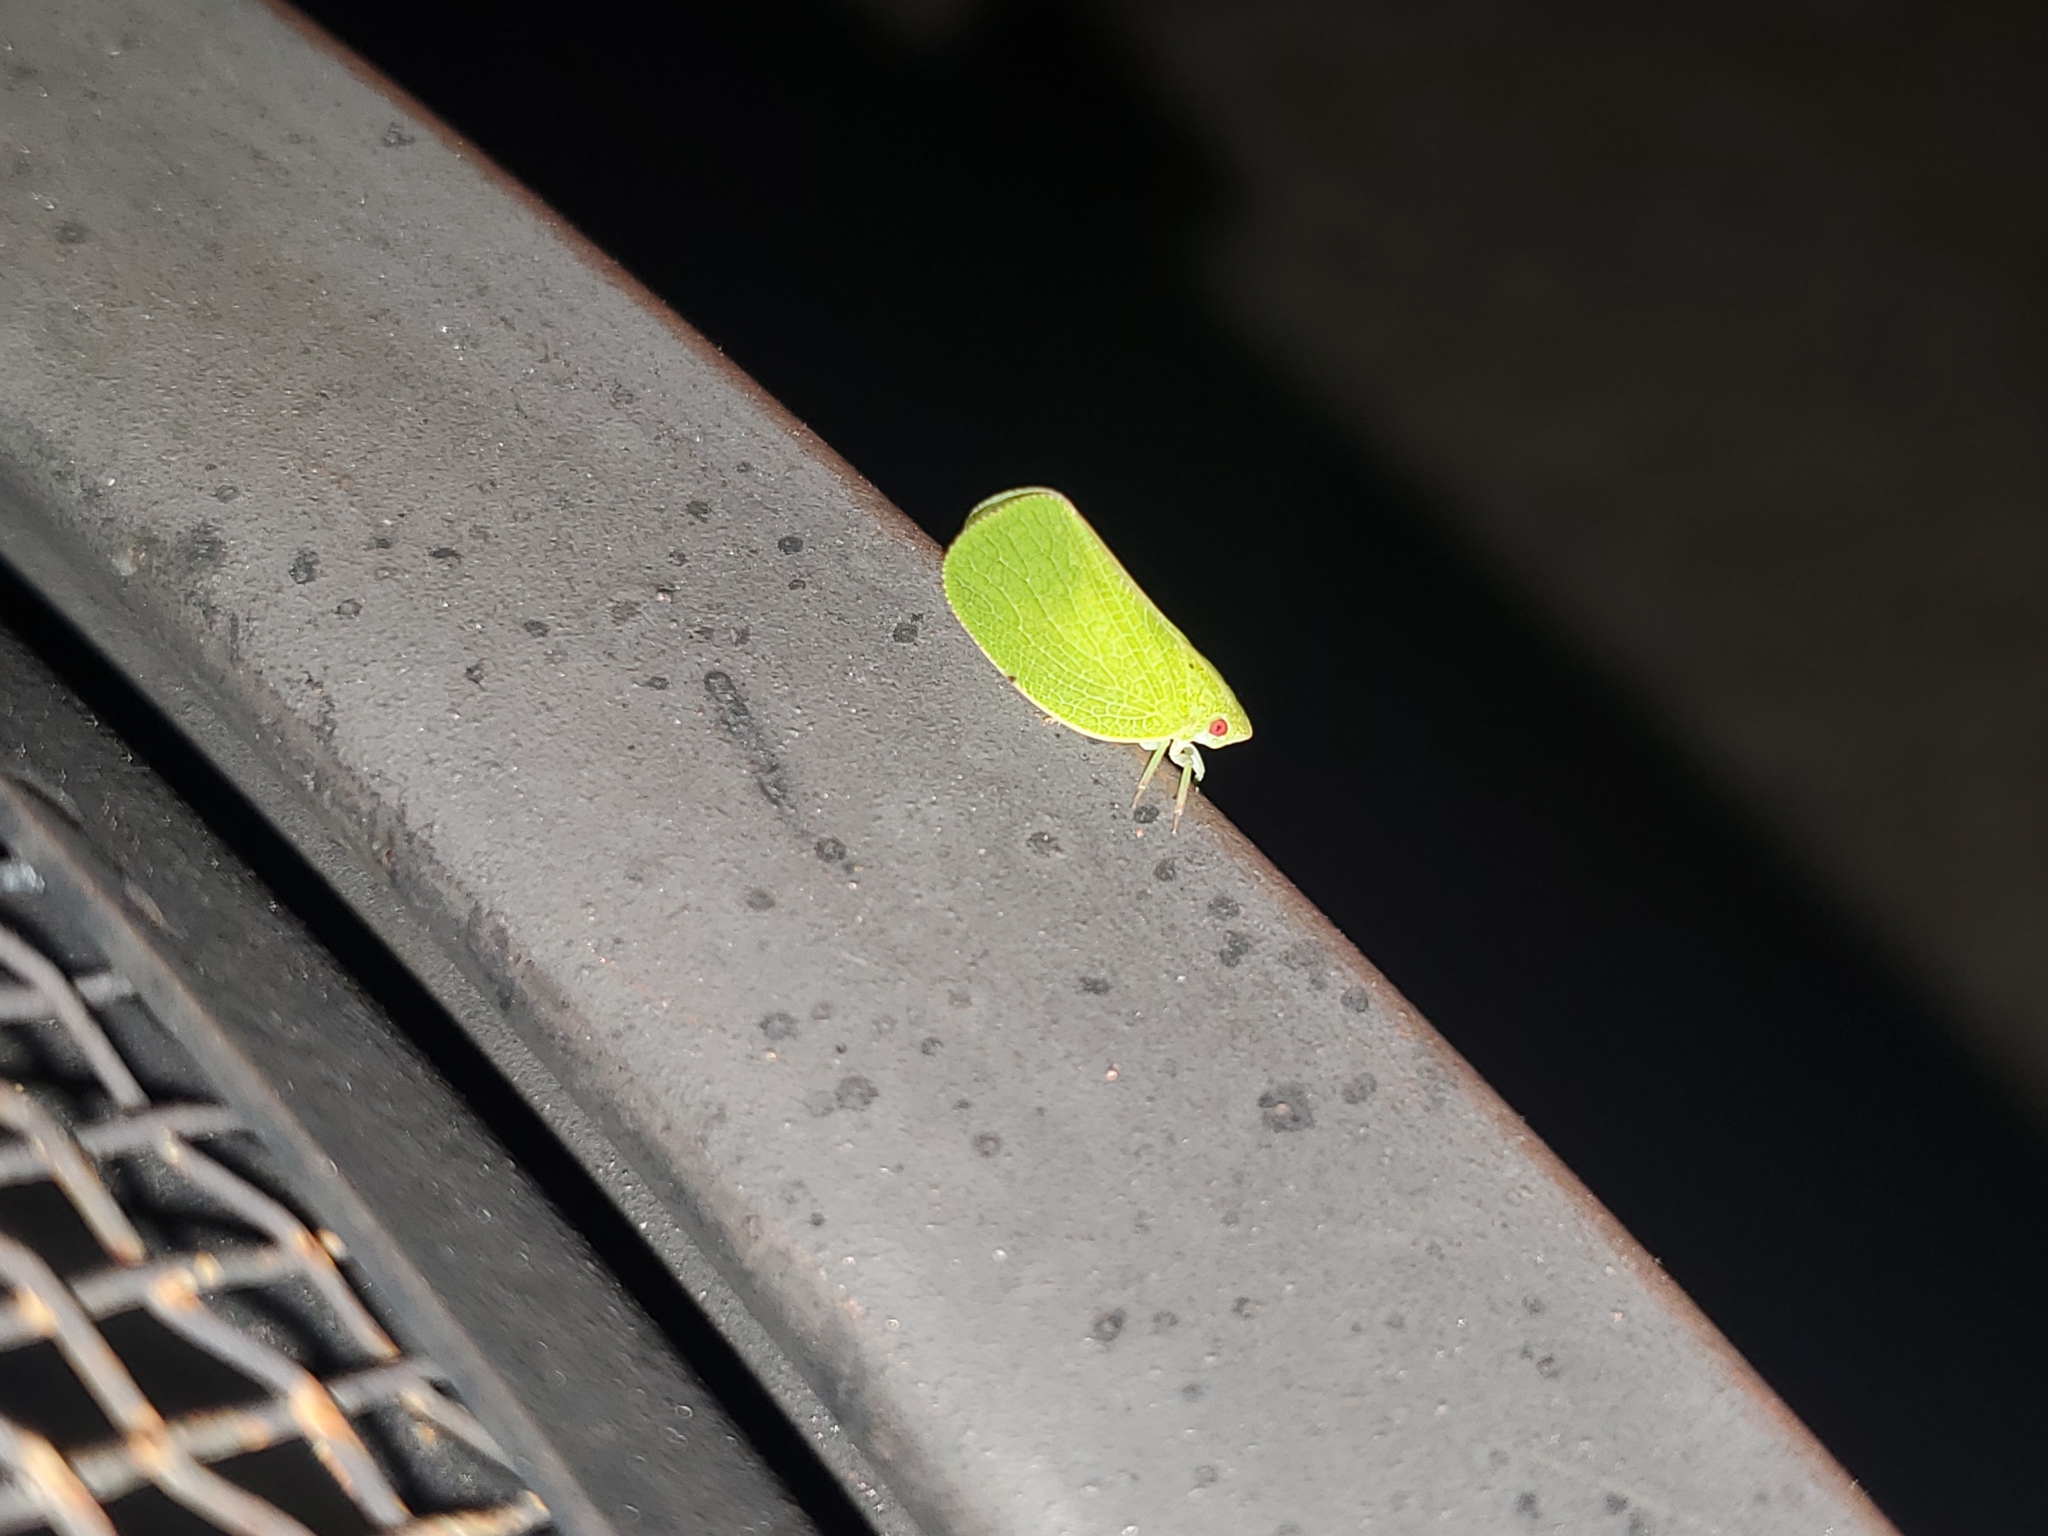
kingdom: Animalia
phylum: Arthropoda
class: Insecta
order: Hemiptera
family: Acanaloniidae
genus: Acanalonia
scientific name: Acanalonia conica
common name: Green cone-headed planthopper
